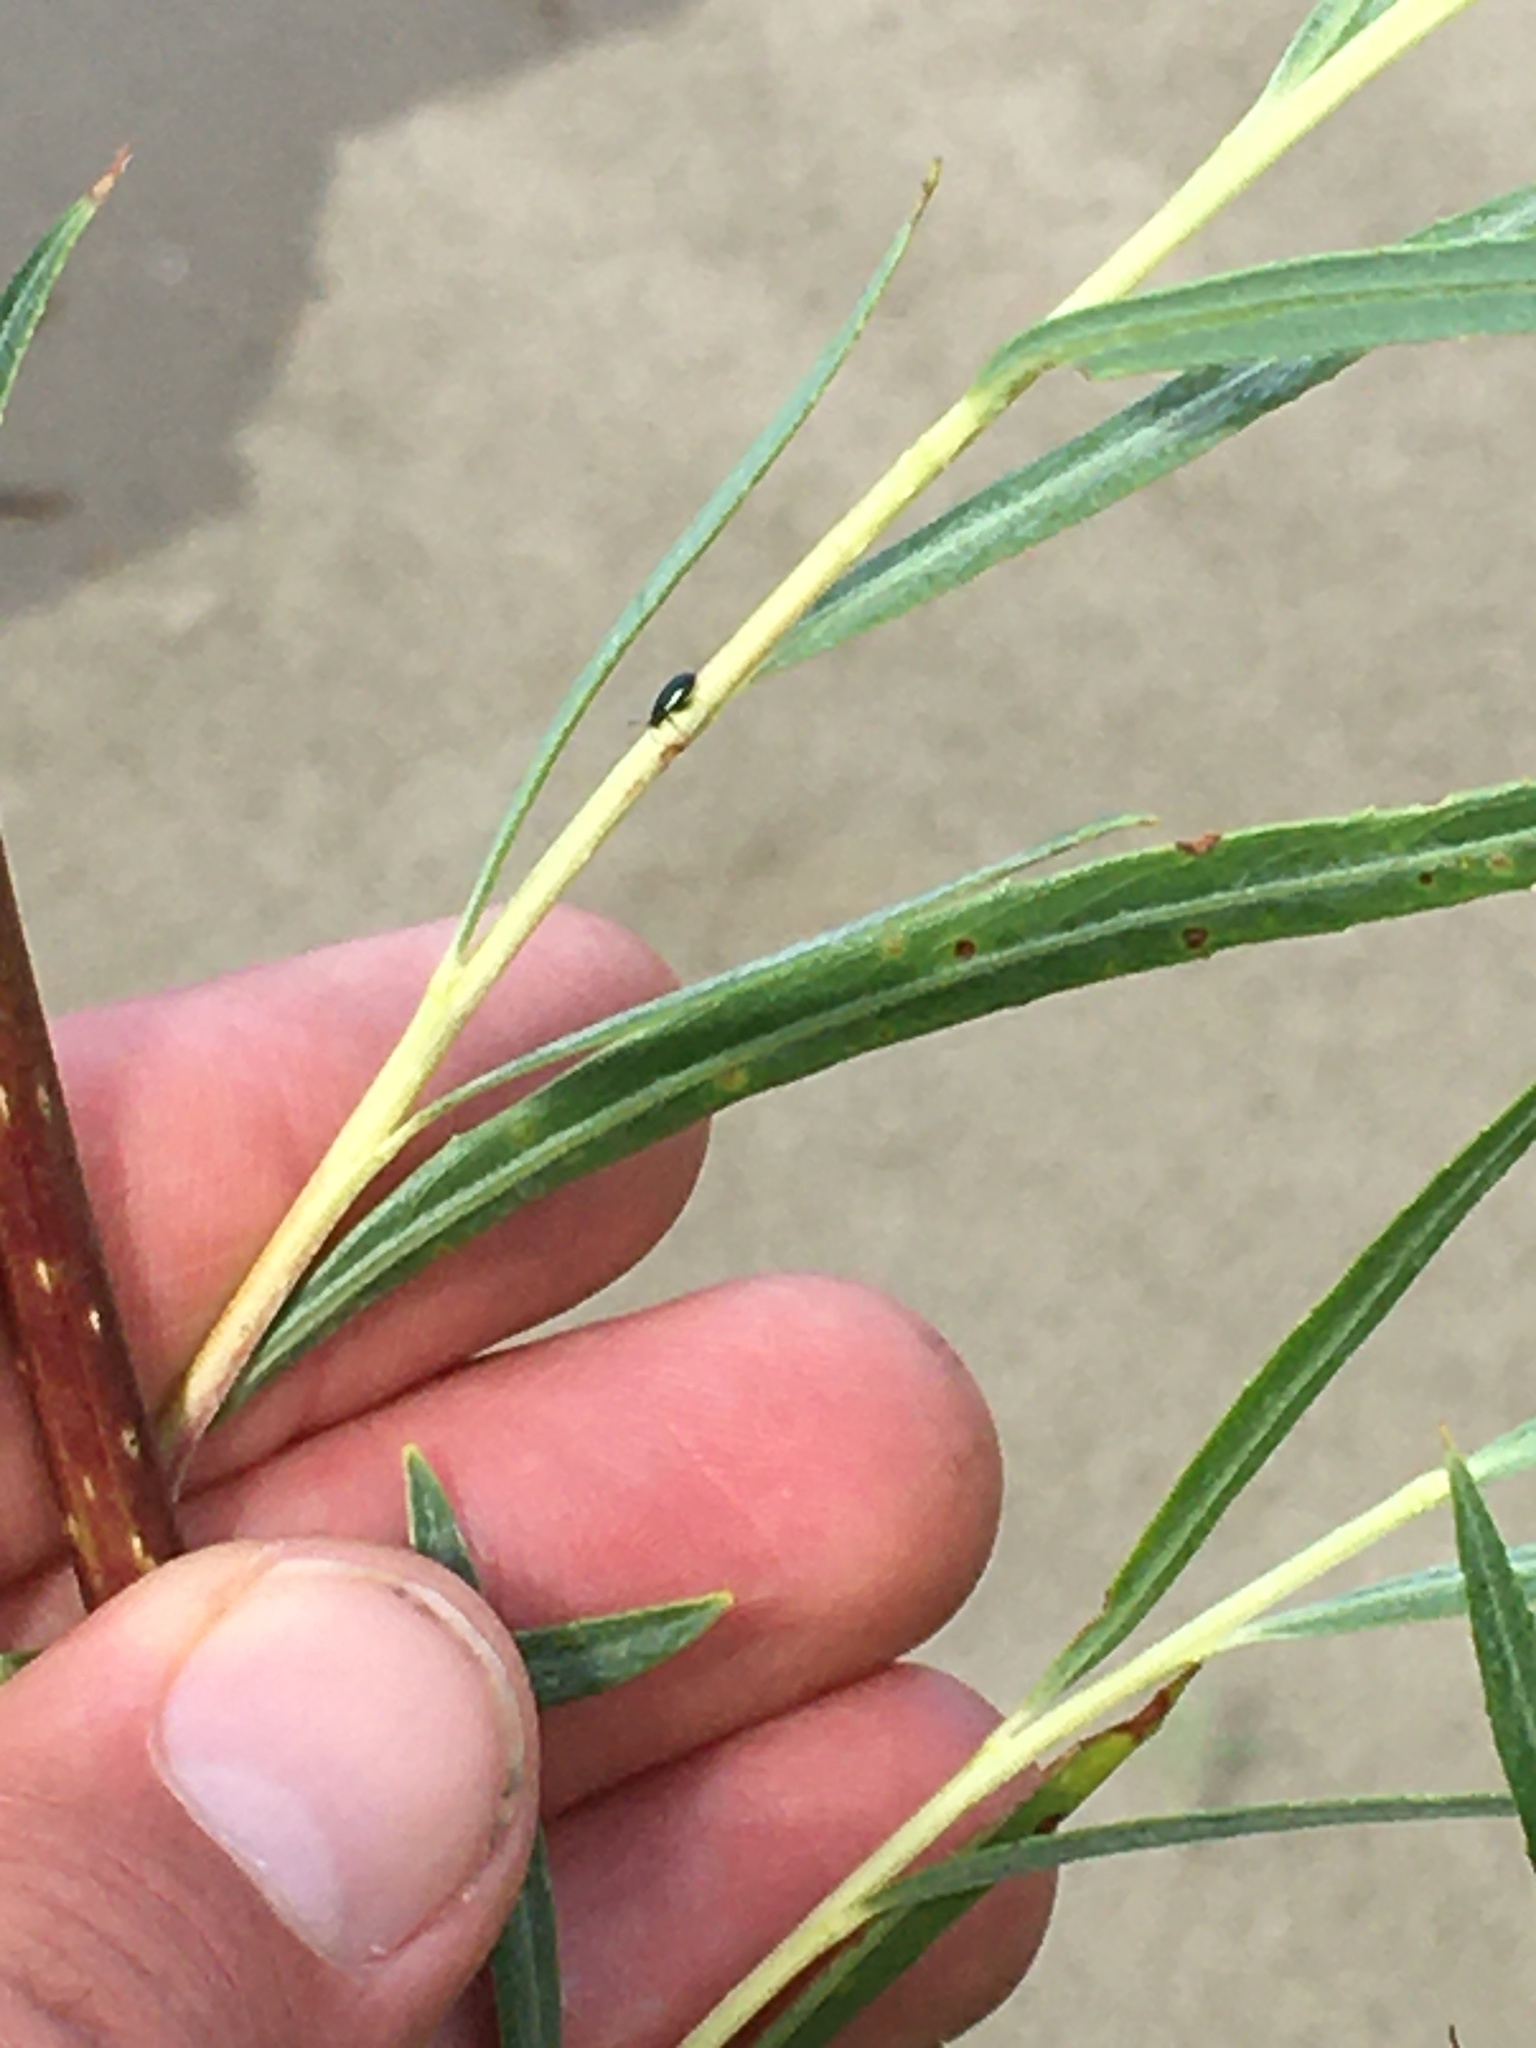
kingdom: Plantae
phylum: Tracheophyta
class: Magnoliopsida
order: Malpighiales
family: Salicaceae
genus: Salix
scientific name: Salix interior
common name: Sandbar willow
